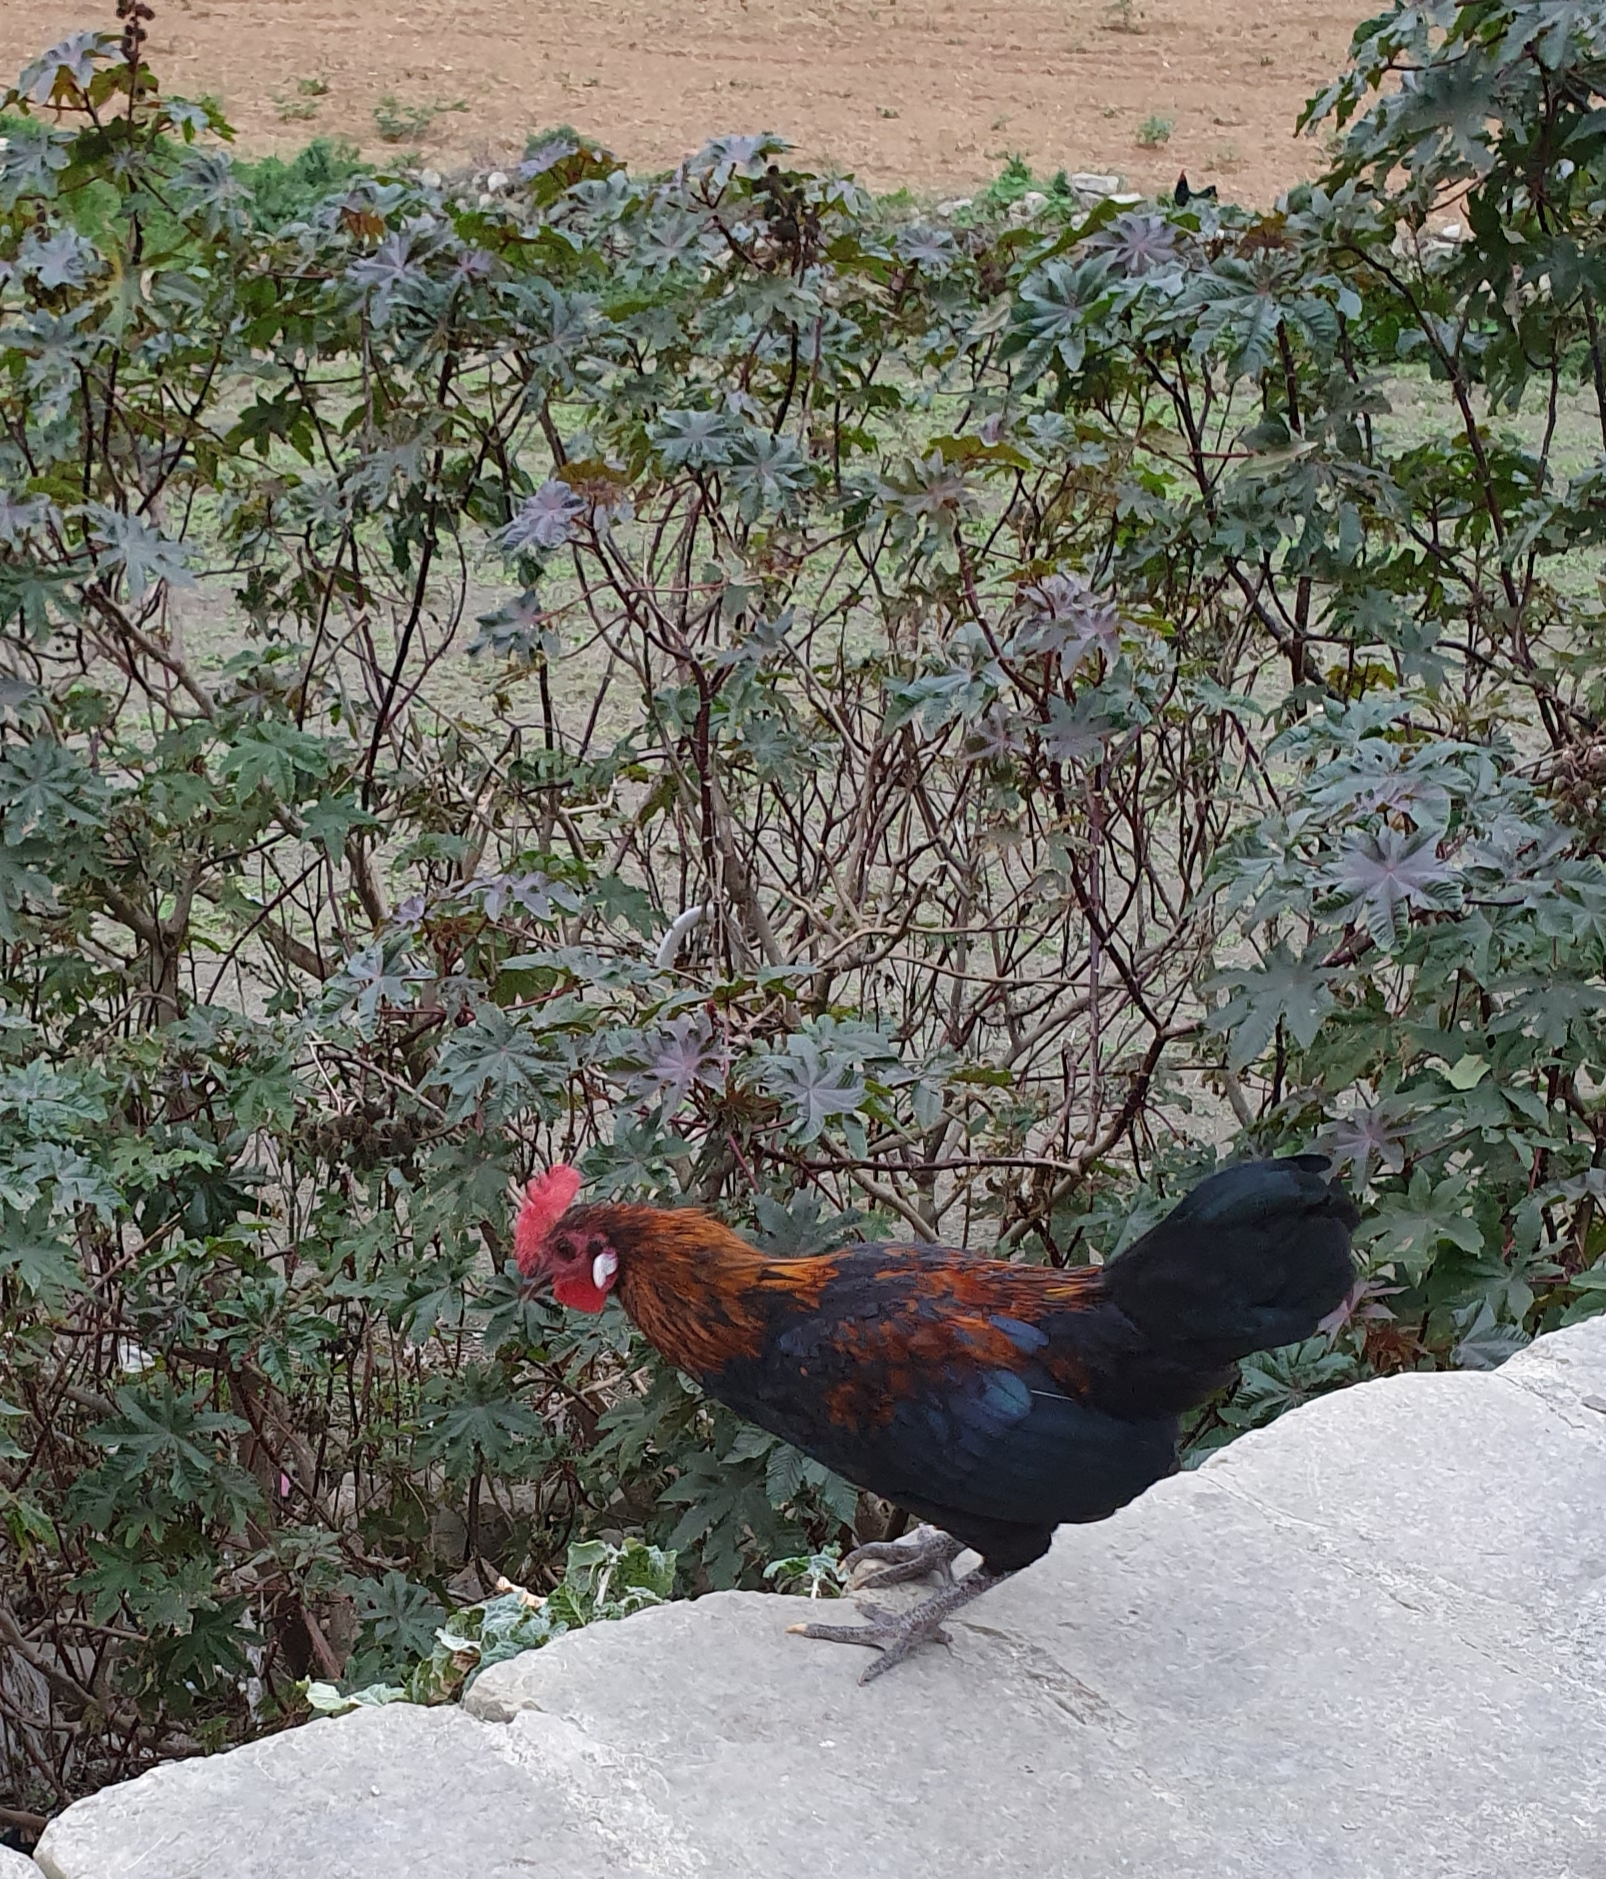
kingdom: Animalia
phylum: Chordata
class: Aves
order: Galliformes
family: Phasianidae
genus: Gallus
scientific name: Gallus gallus
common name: Red junglefowl
